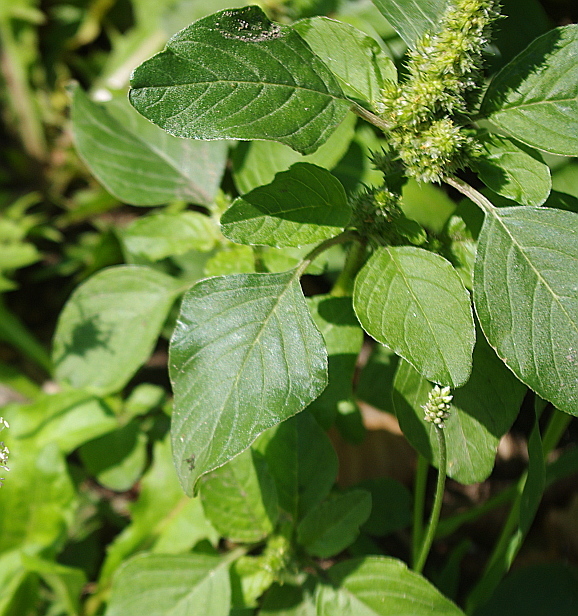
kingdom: Plantae
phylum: Tracheophyta
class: Magnoliopsida
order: Caryophyllales
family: Amaranthaceae
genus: Amaranthus
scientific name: Amaranthus retroflexus
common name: Redroot amaranth
